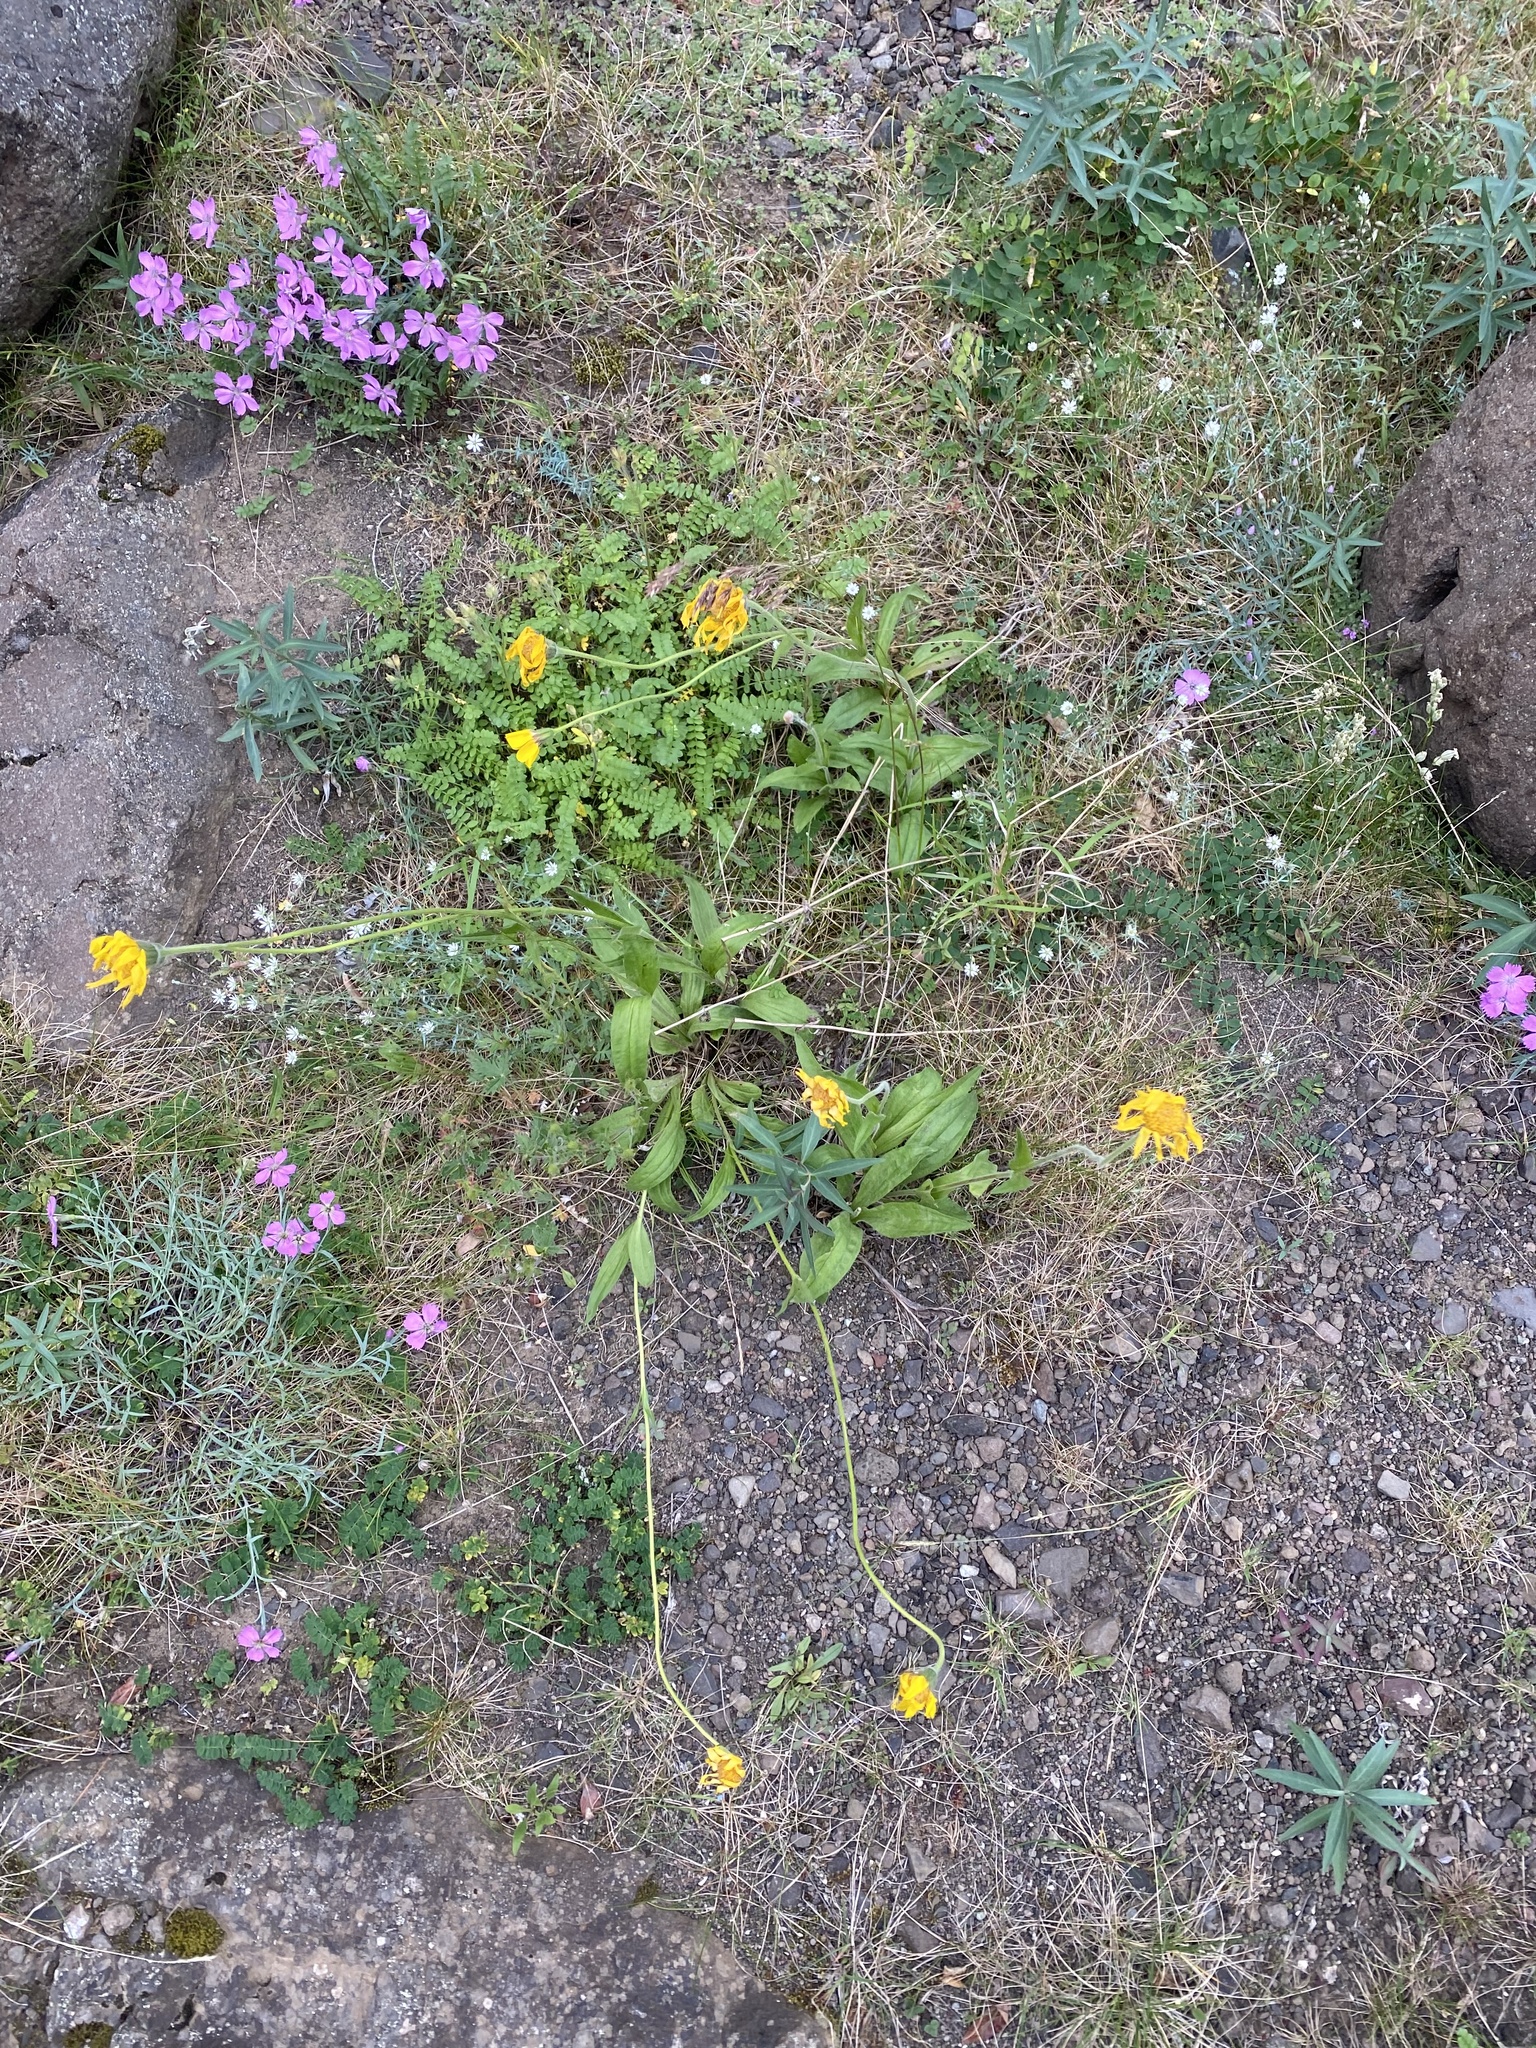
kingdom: Plantae
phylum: Tracheophyta
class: Magnoliopsida
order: Asterales
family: Asteraceae
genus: Arnica
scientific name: Arnica angustifolia
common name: Arctic arnica
